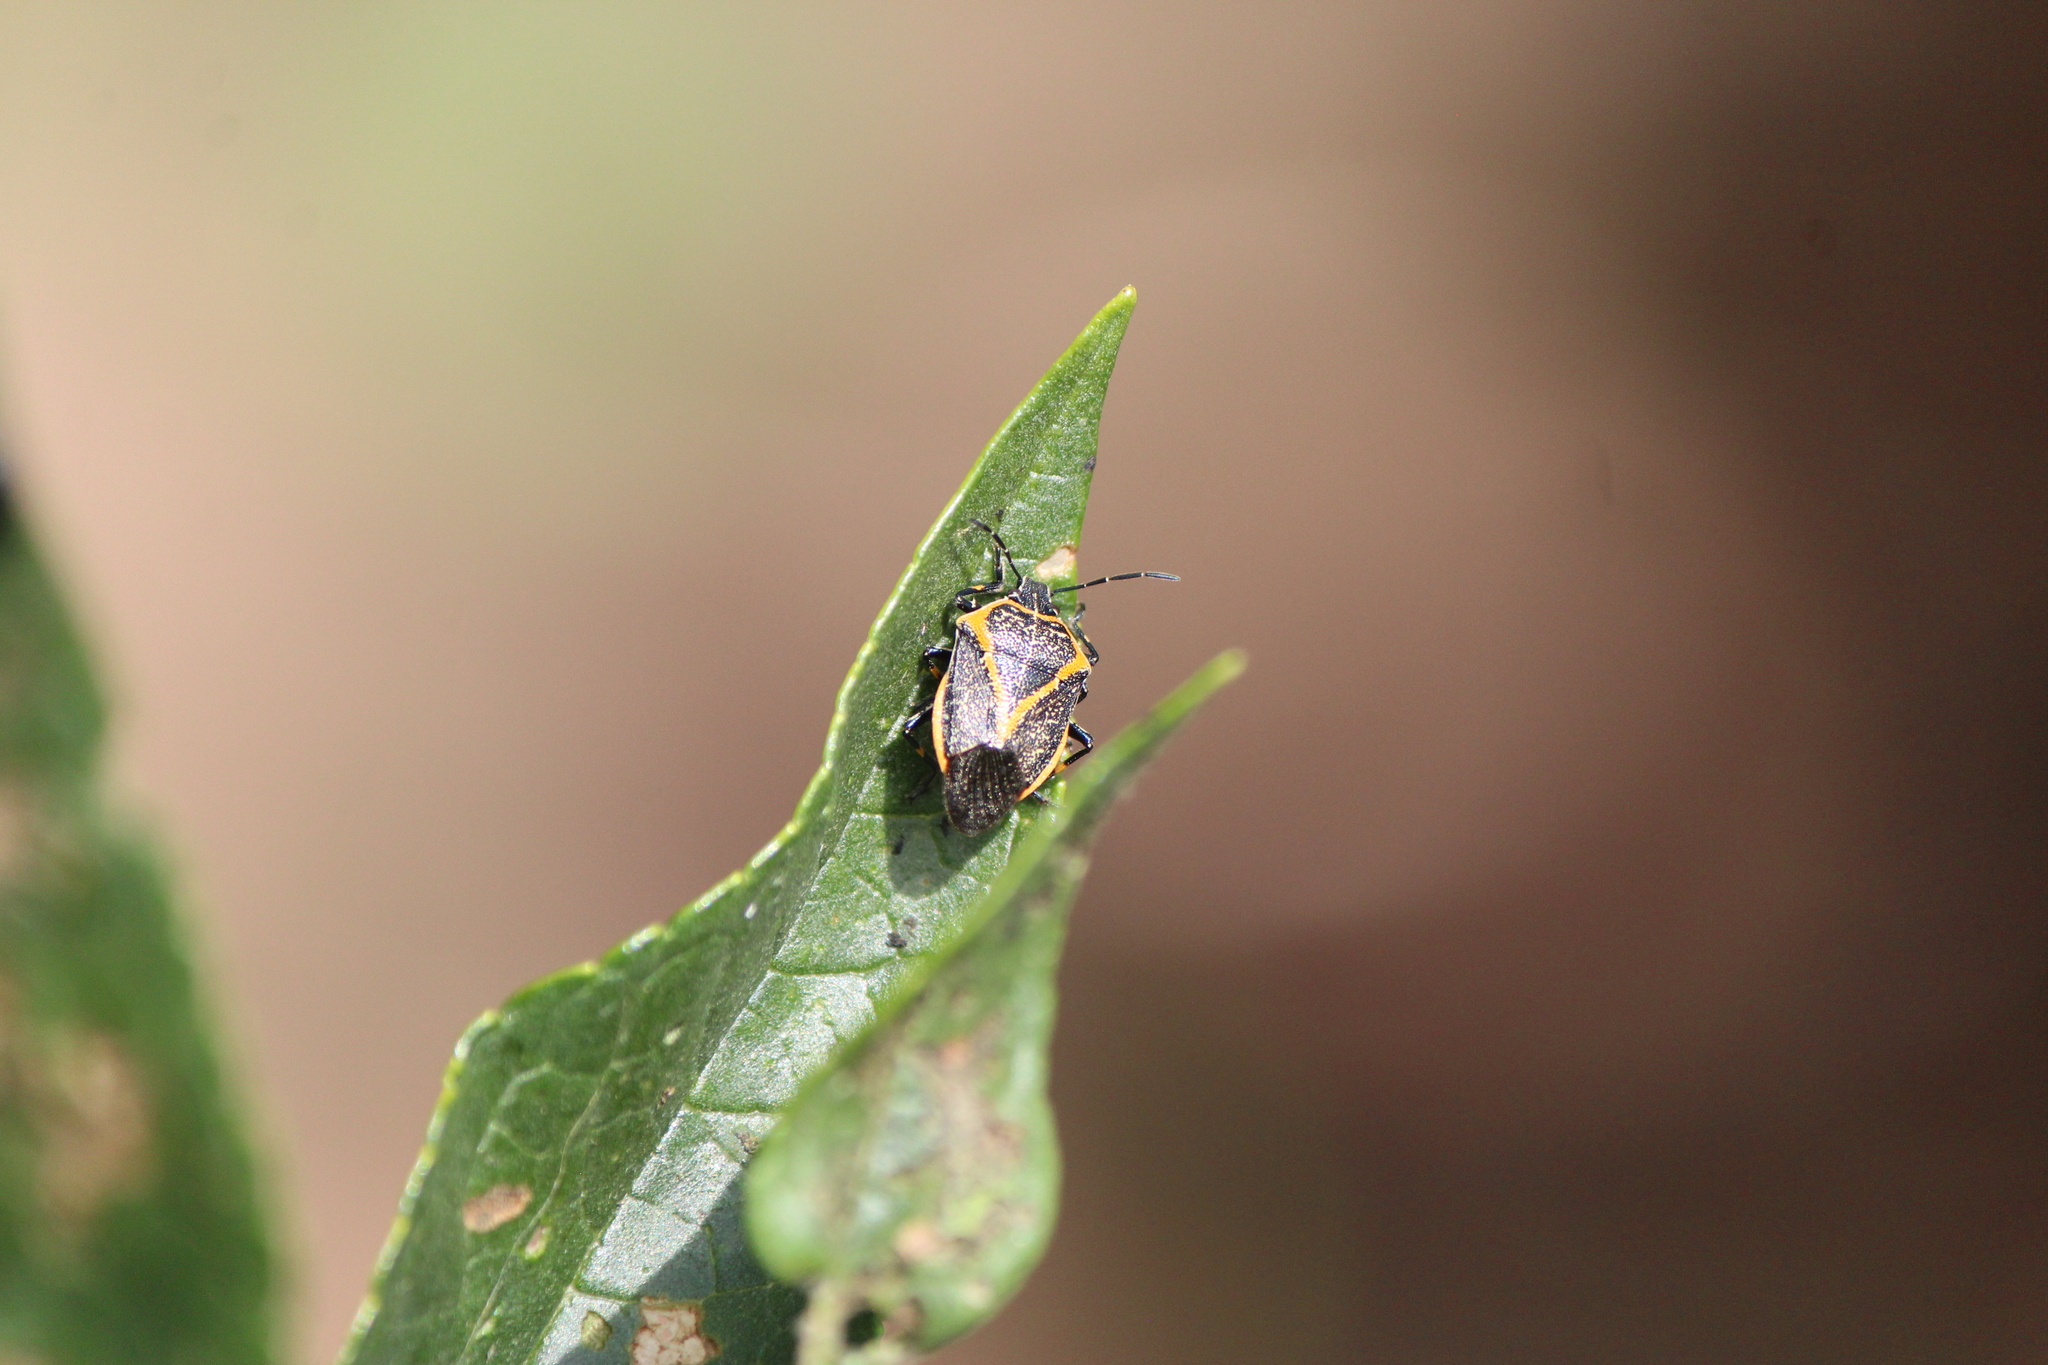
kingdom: Animalia
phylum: Arthropoda
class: Insecta
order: Hemiptera
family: Pentatomidae
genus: Perillus
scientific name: Perillus confluens
